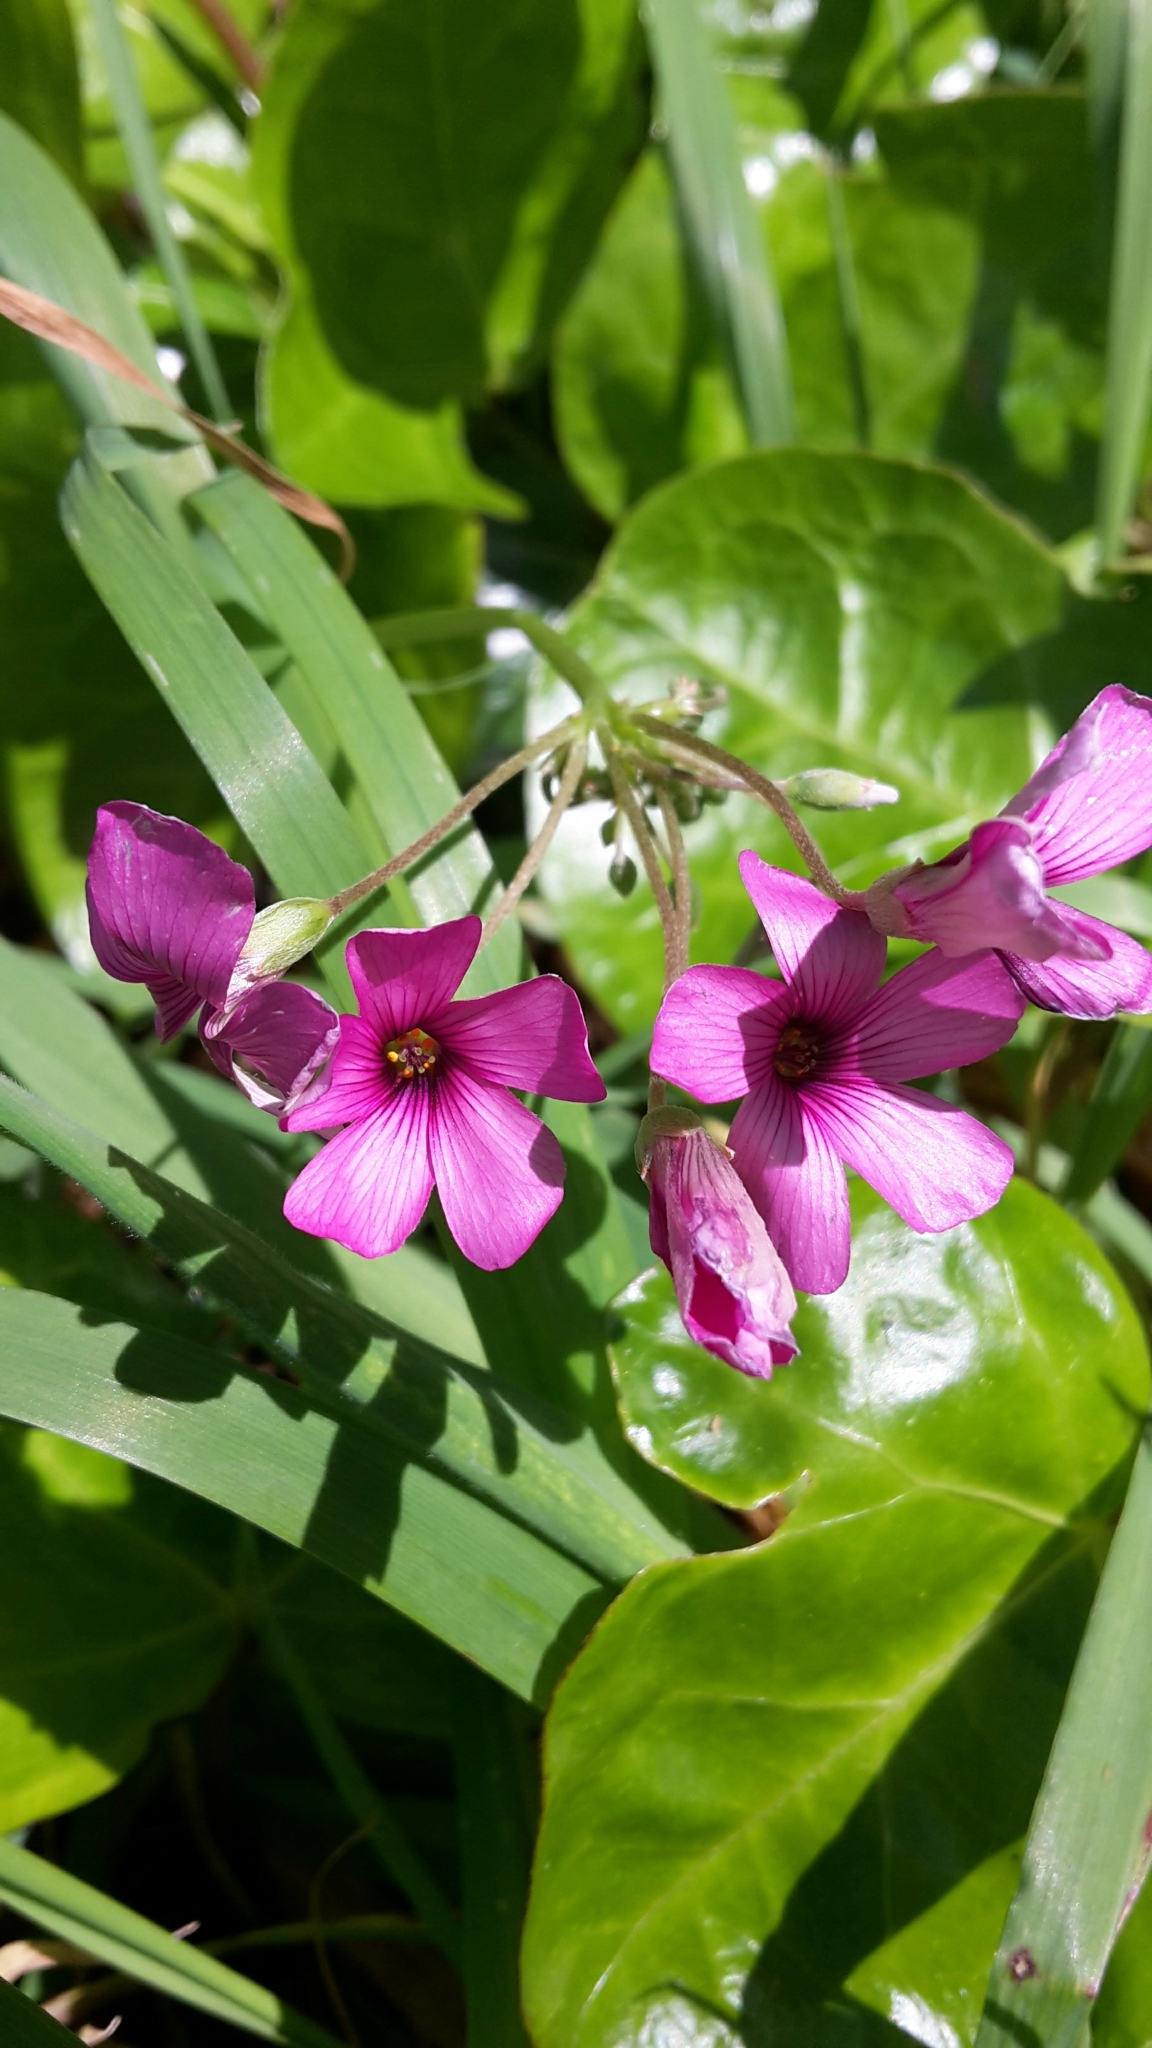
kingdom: Plantae
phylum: Tracheophyta
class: Magnoliopsida
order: Oxalidales
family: Oxalidaceae
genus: Oxalis
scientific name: Oxalis articulata
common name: Pink-sorrel
